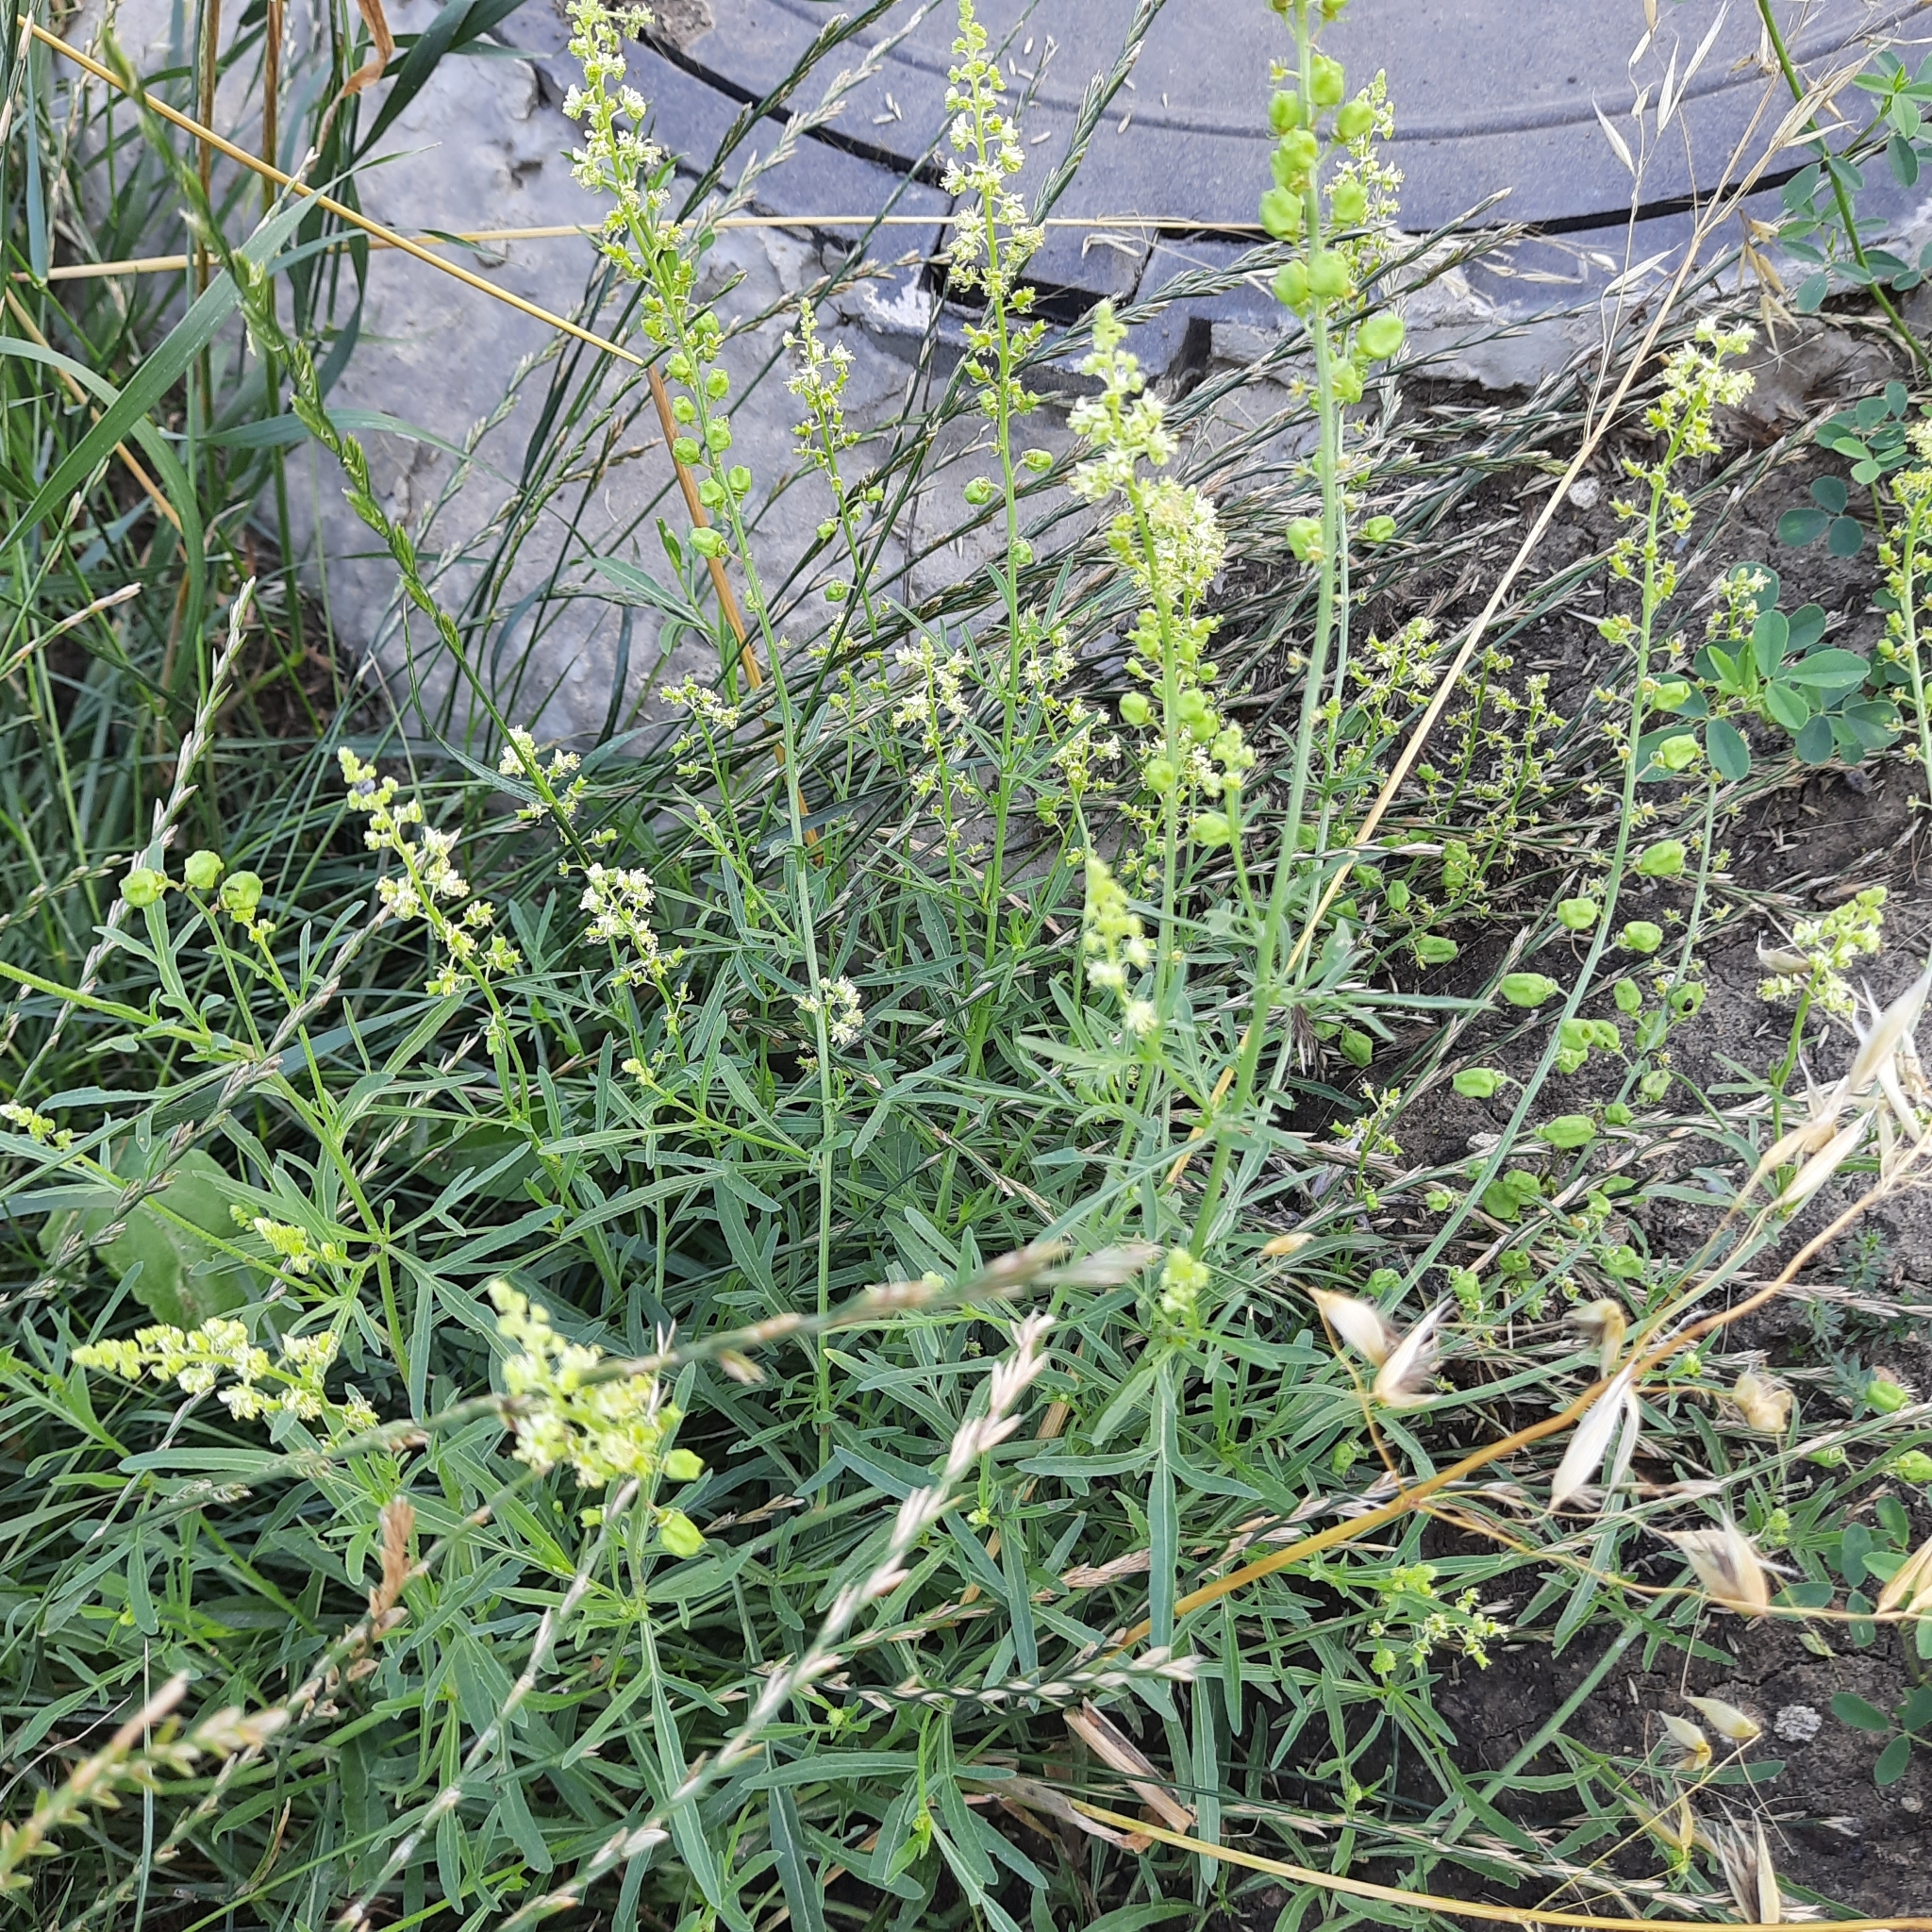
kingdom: Plantae
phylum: Tracheophyta
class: Magnoliopsida
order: Brassicales
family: Resedaceae
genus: Reseda
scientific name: Reseda lutea
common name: Wild mignonette
